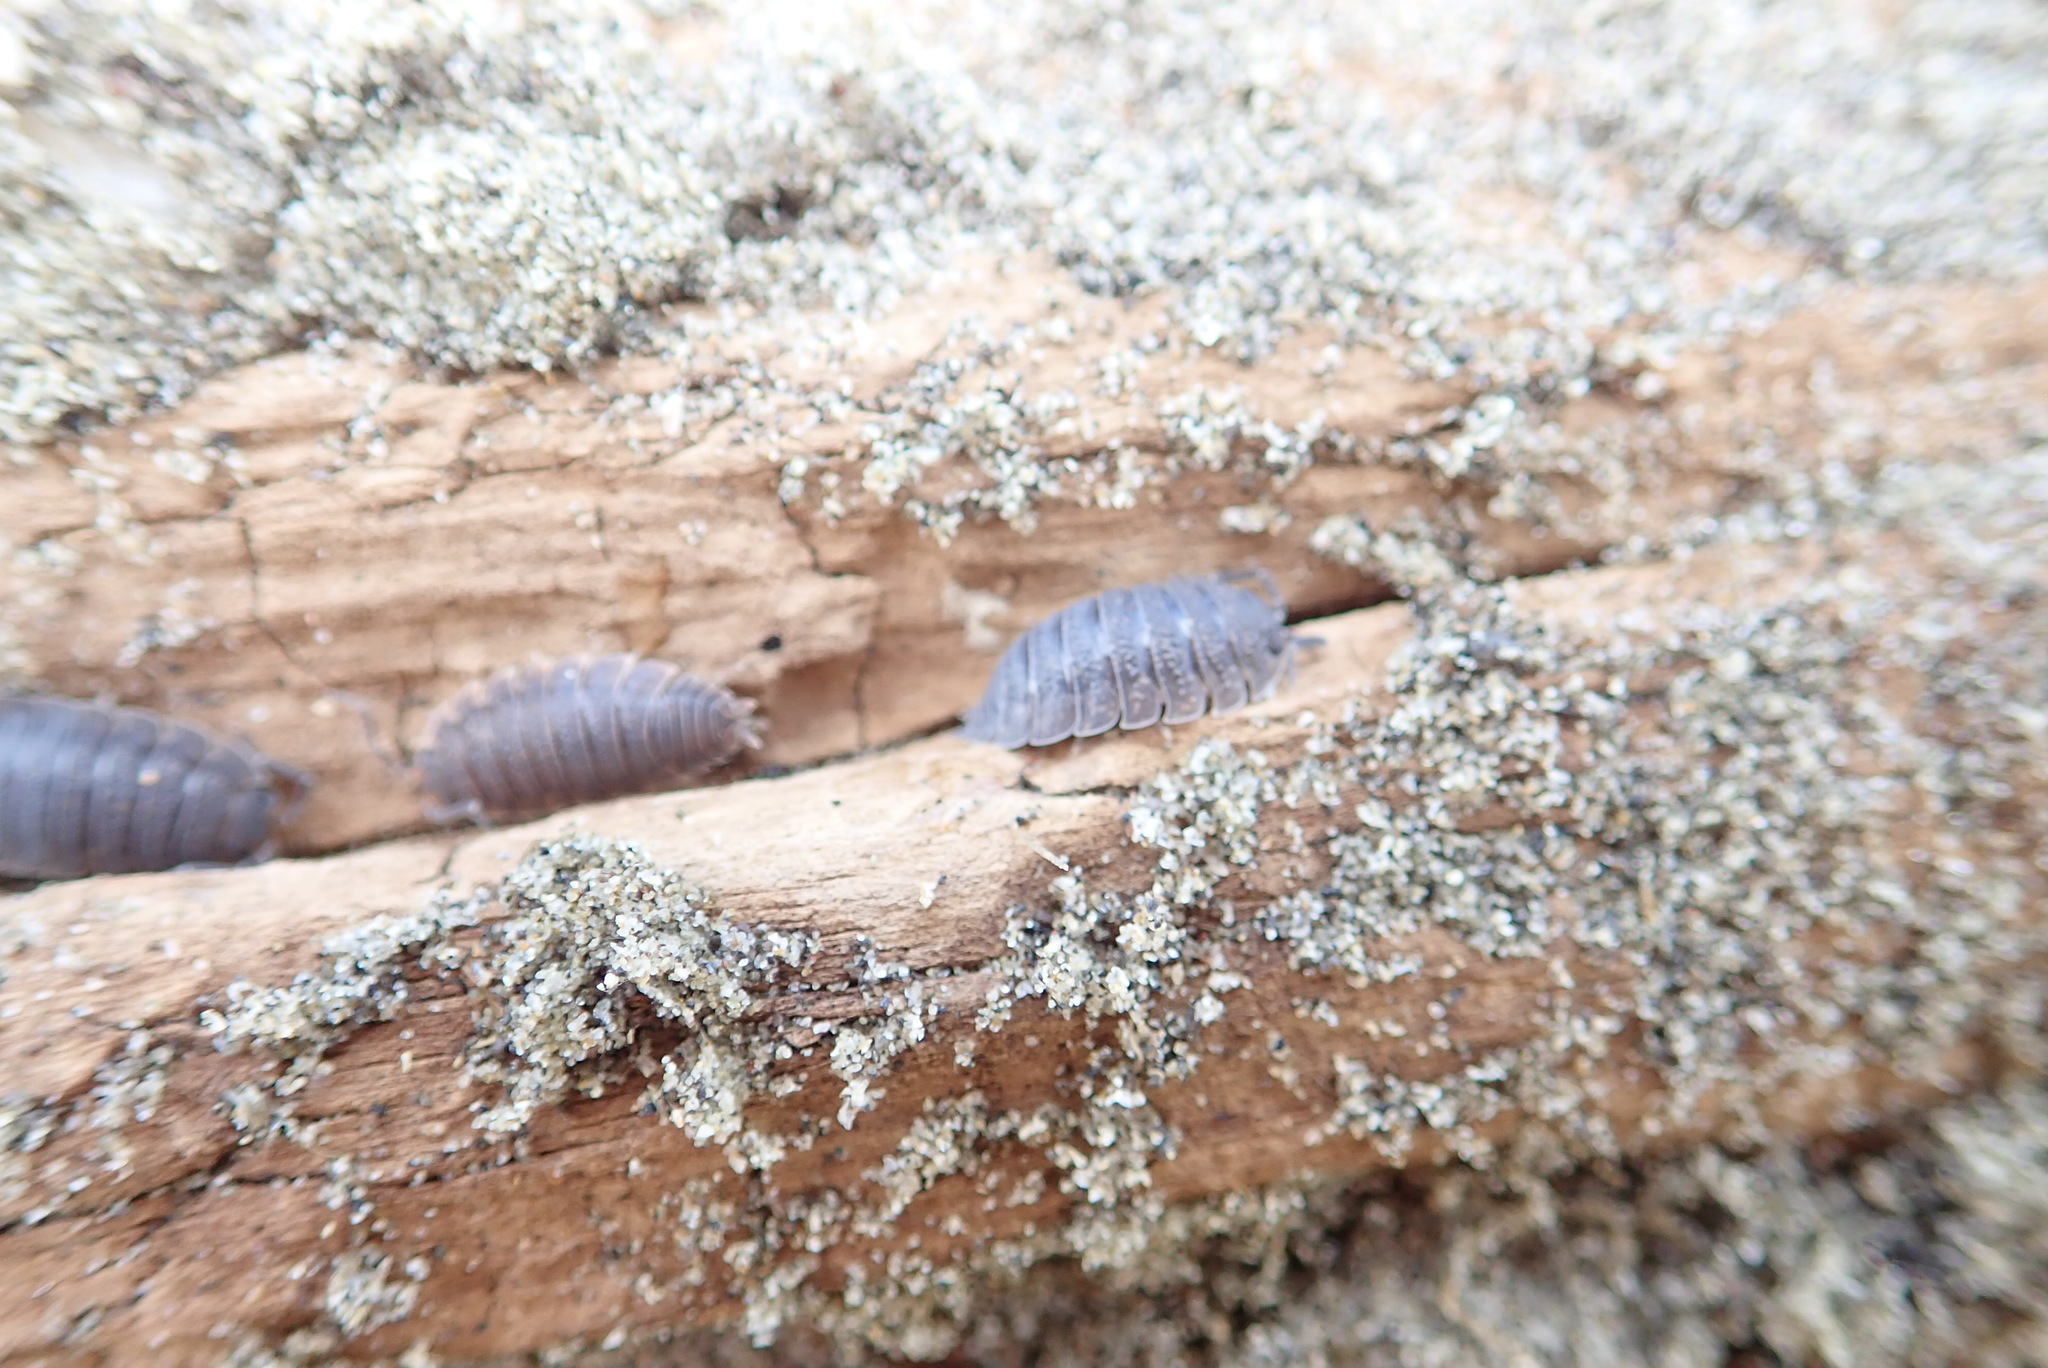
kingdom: Animalia
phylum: Arthropoda
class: Malacostraca
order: Isopoda
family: Porcellionidae
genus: Porcellio
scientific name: Porcellio scaber
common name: Common rough woodlouse
